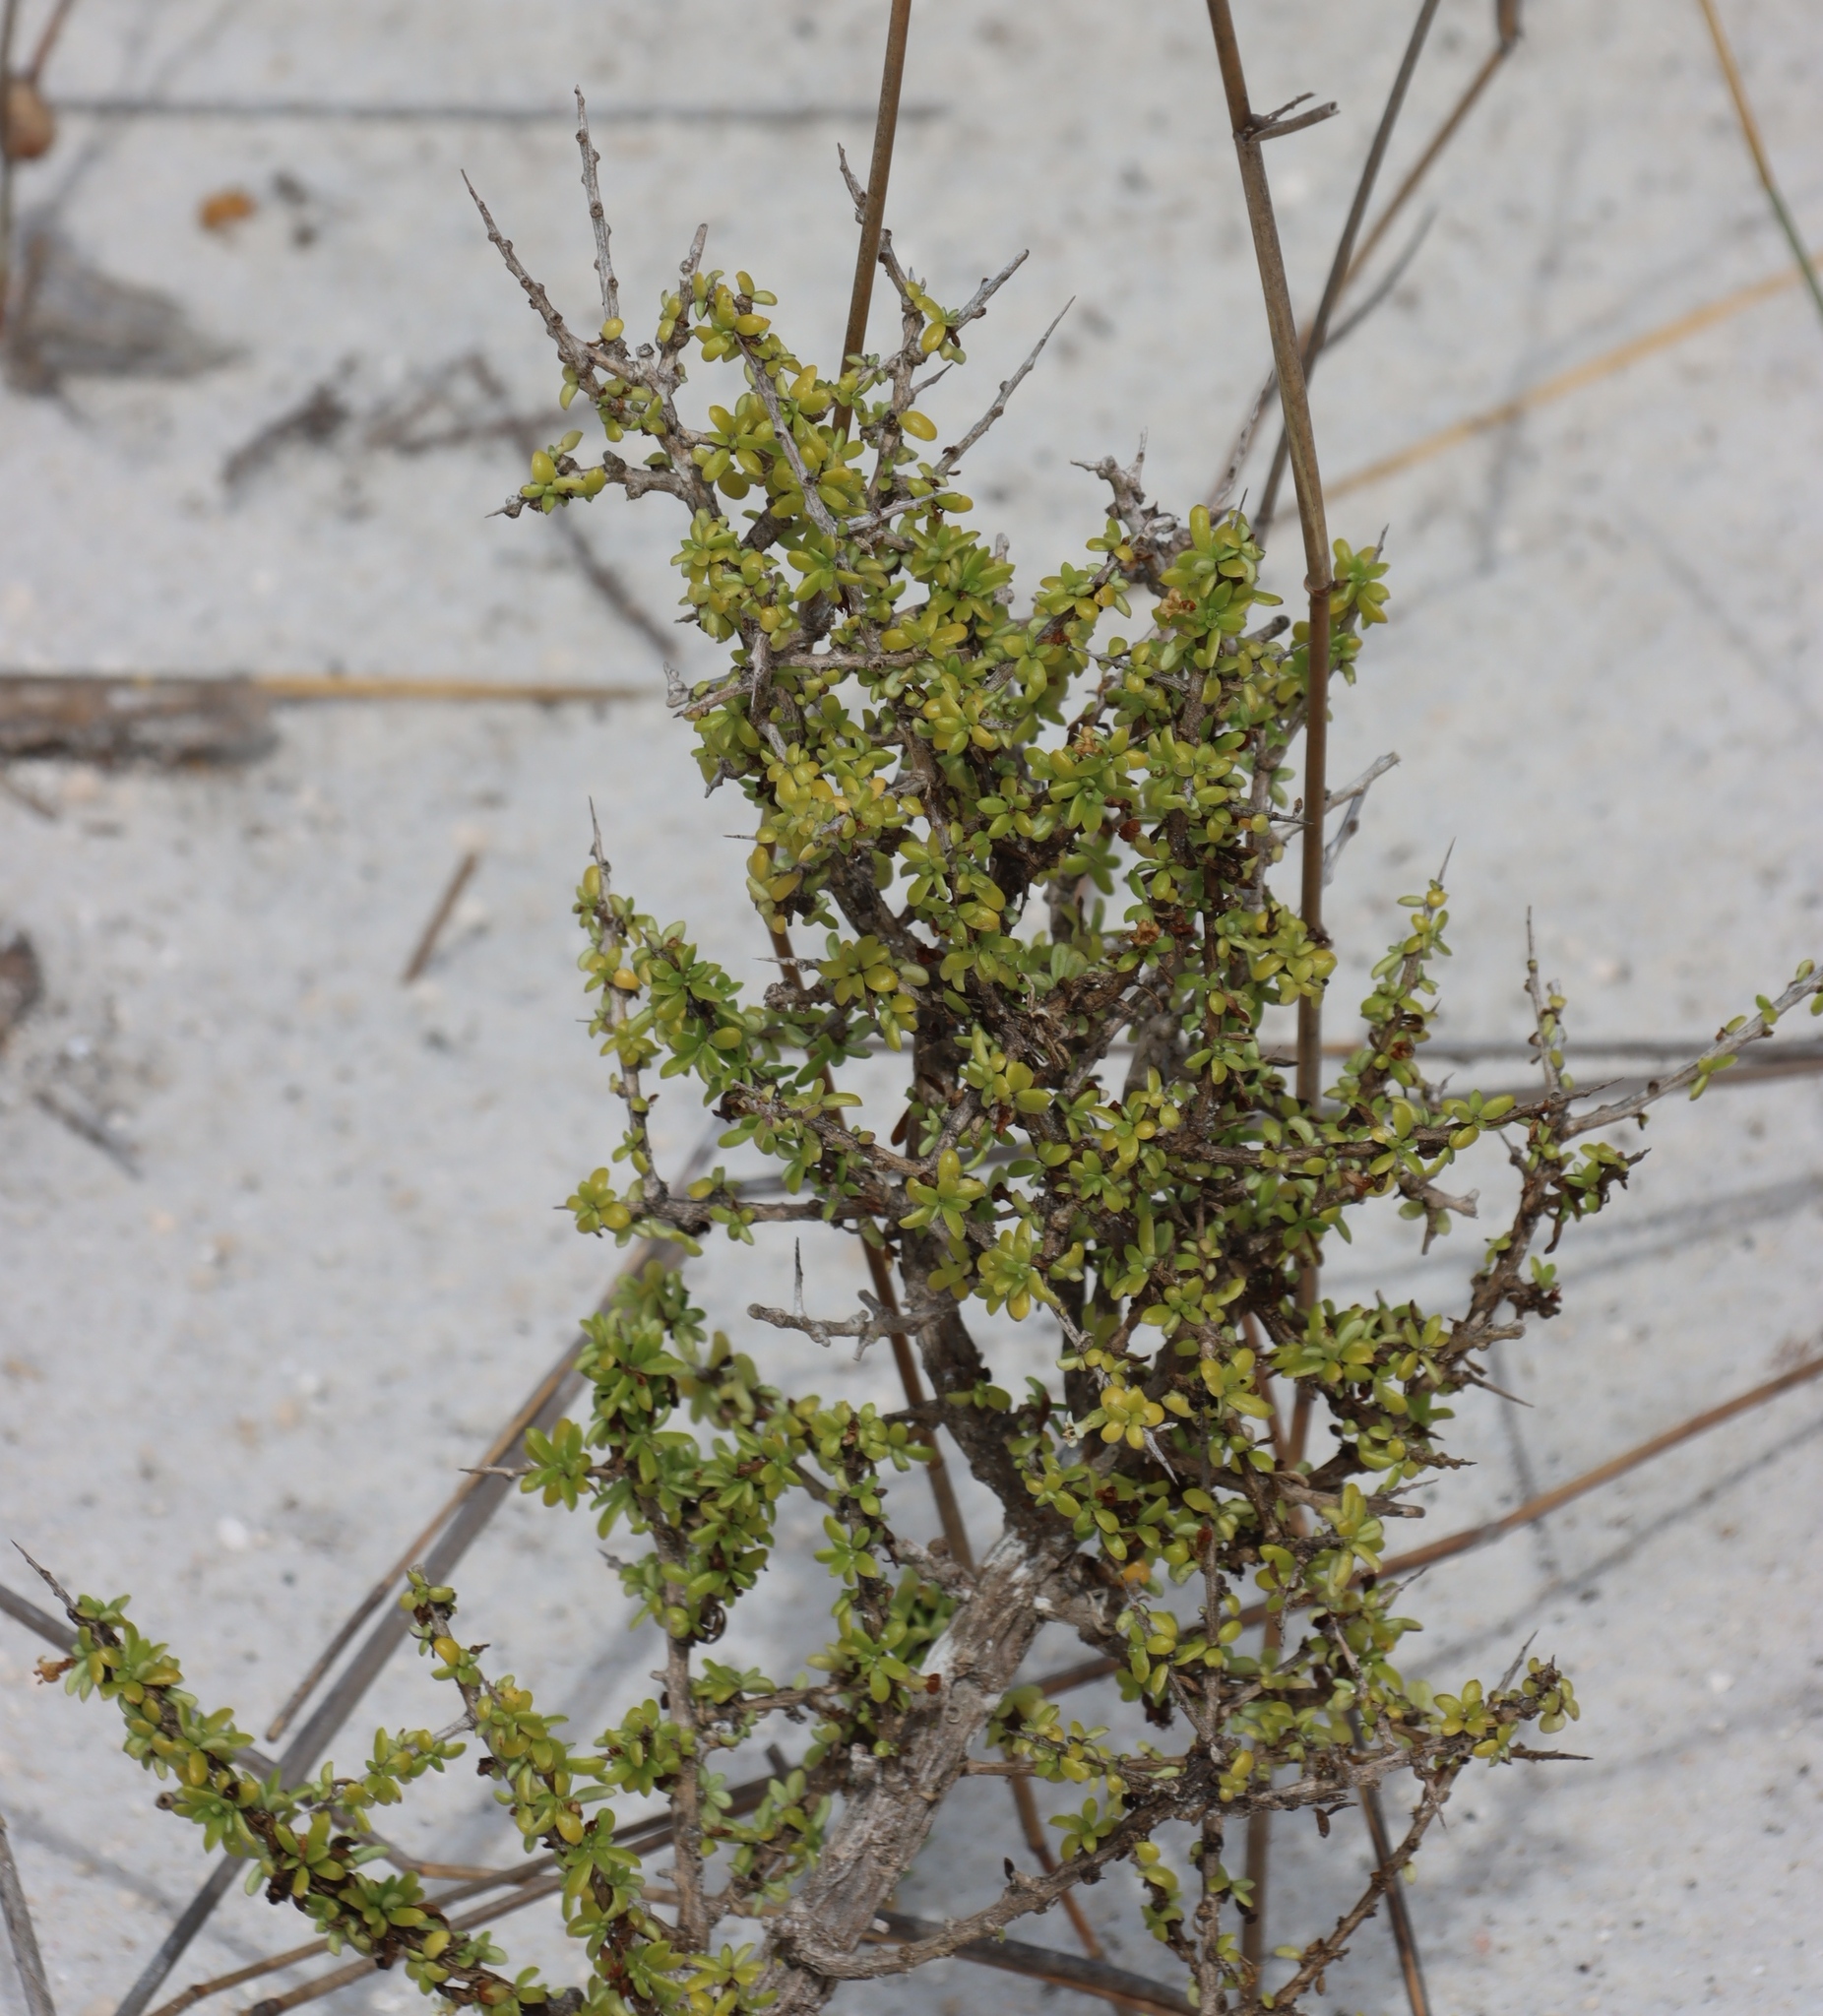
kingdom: Plantae
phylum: Tracheophyta
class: Magnoliopsida
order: Solanales
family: Solanaceae
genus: Lycium
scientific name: Lycium tetrandrum
